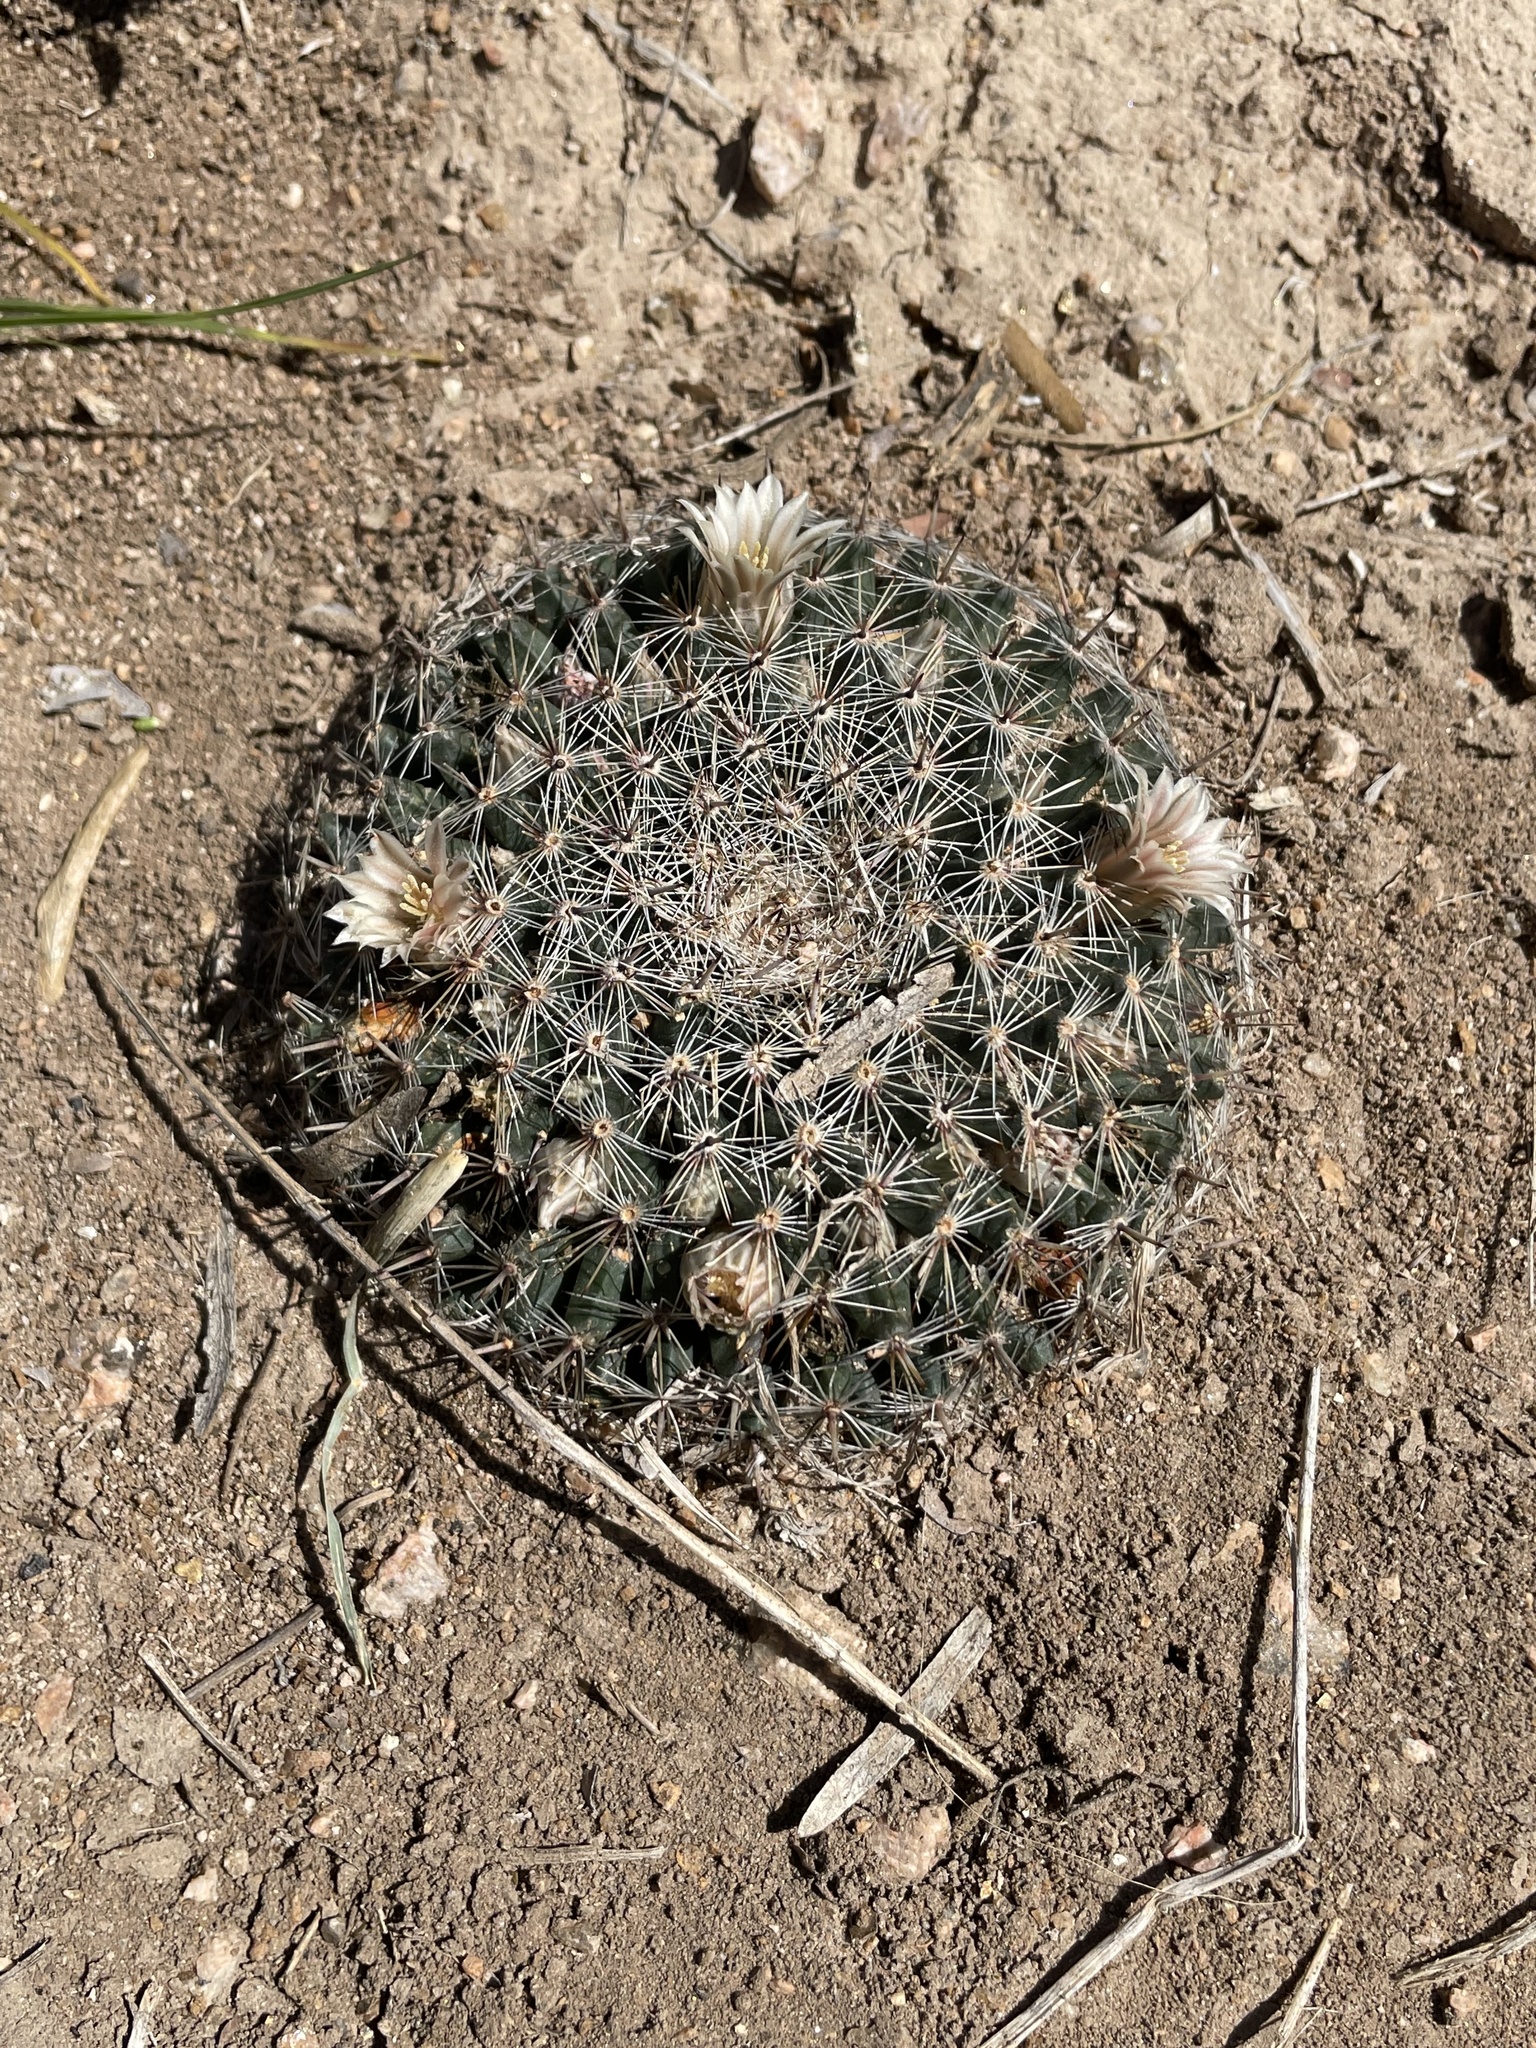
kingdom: Plantae
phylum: Tracheophyta
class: Magnoliopsida
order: Caryophyllales
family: Cactaceae
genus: Mammillaria
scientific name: Mammillaria heyderi
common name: Little nipple cactus
